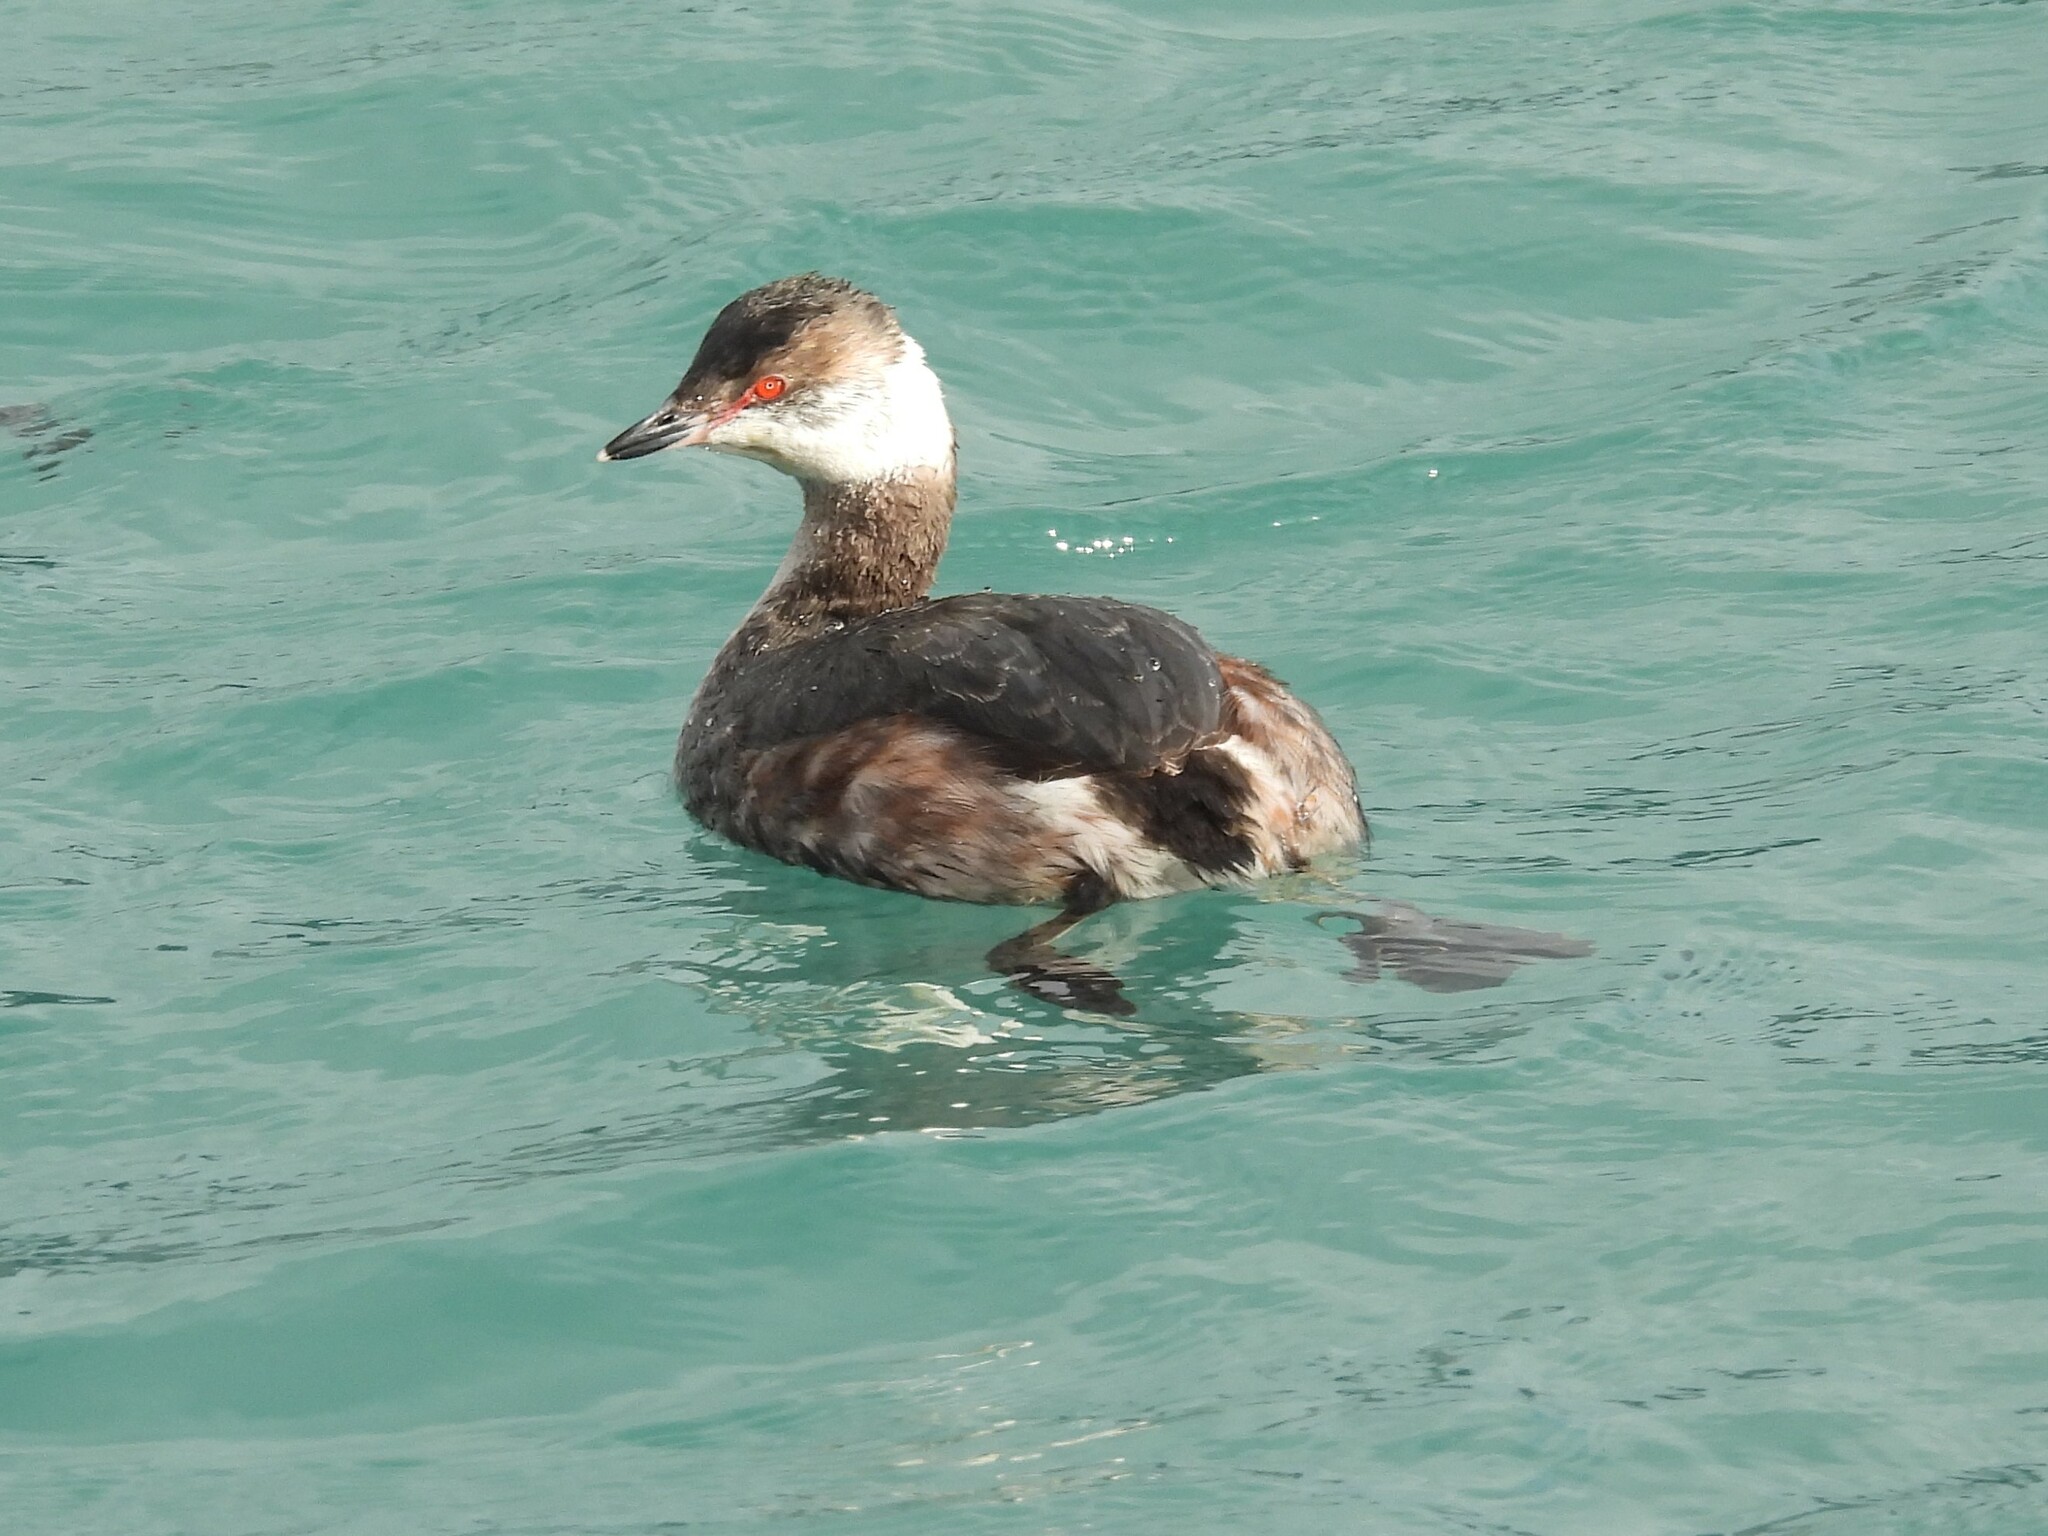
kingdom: Animalia
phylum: Chordata
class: Aves
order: Podicipediformes
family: Podicipedidae
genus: Podiceps
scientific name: Podiceps auritus
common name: Horned grebe
